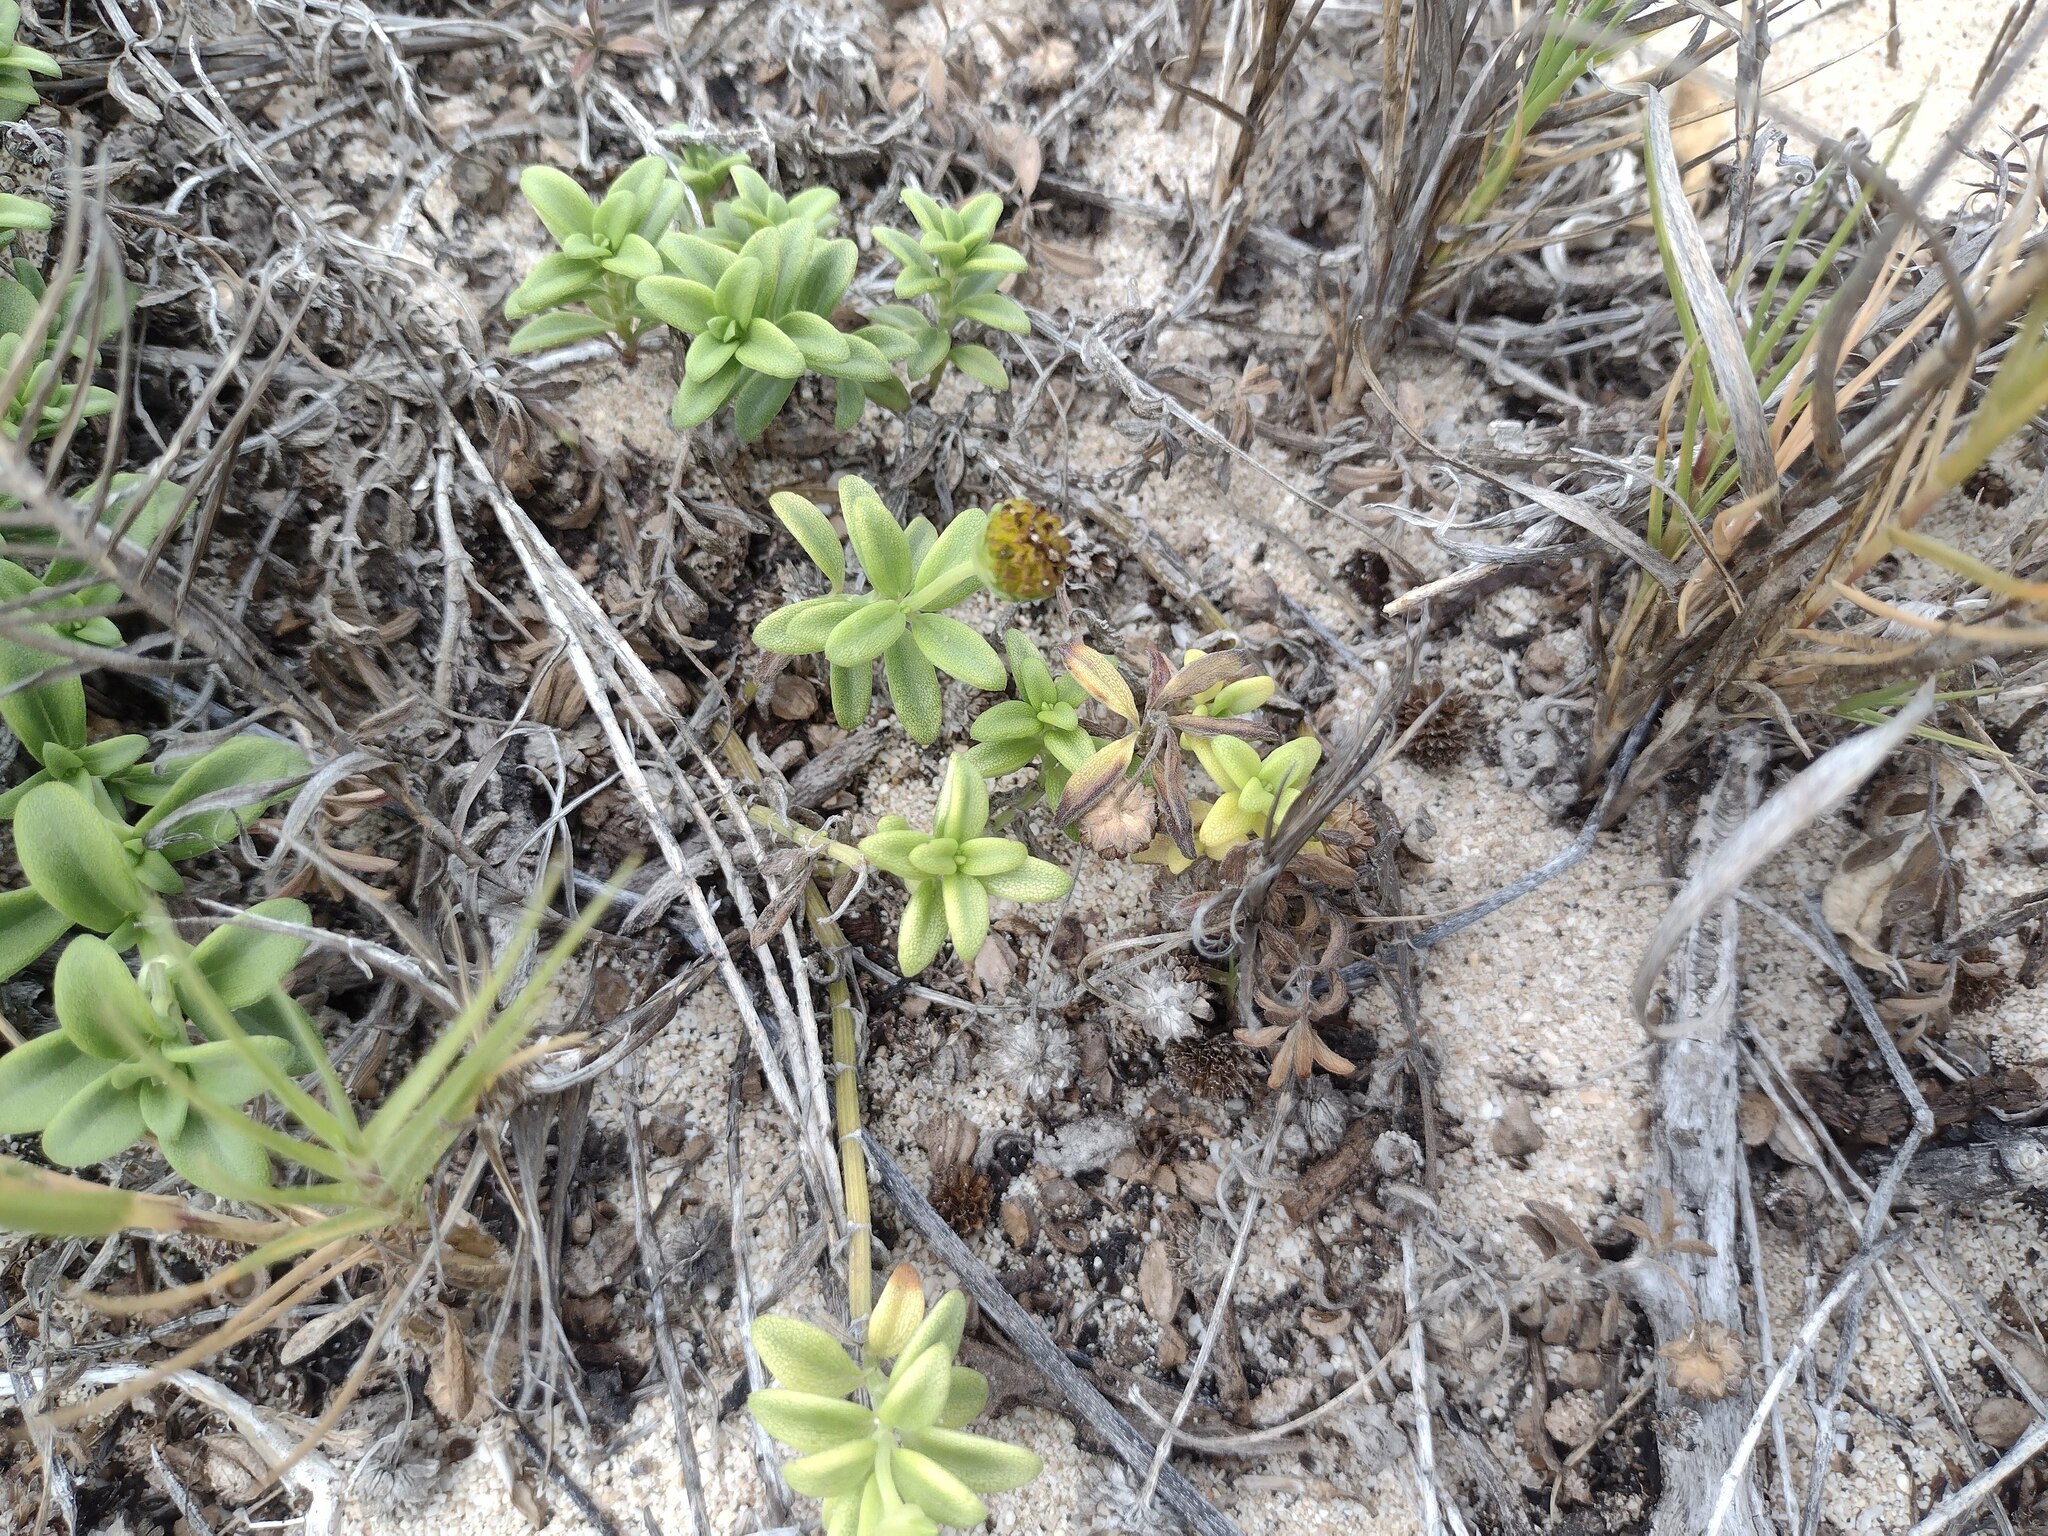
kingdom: Plantae
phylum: Tracheophyta
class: Magnoliopsida
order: Asterales
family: Asteraceae
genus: Lipochaeta
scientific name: Lipochaeta integrifolia
